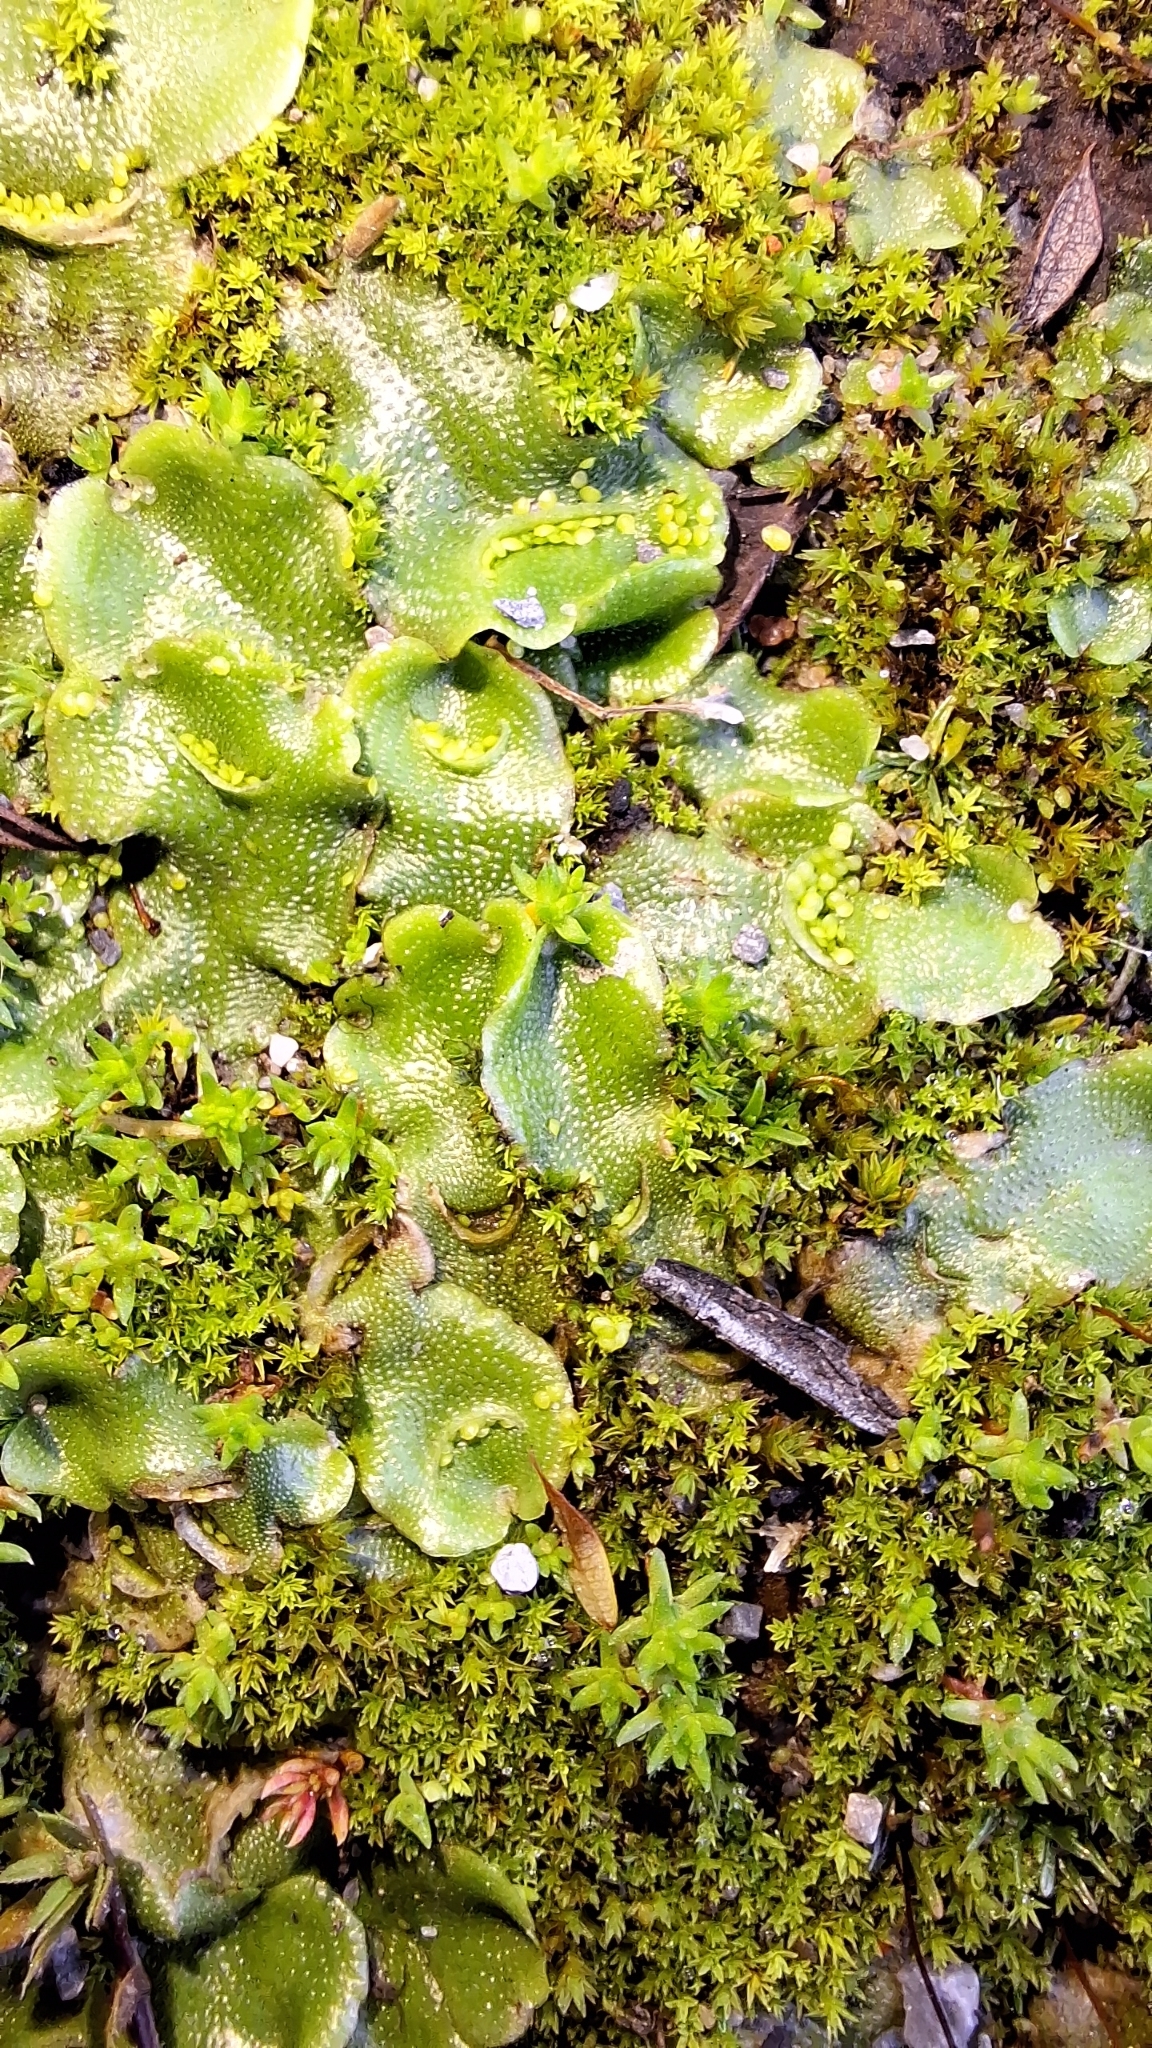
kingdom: Plantae
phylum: Marchantiophyta
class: Marchantiopsida
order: Lunulariales
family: Lunulariaceae
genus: Lunularia
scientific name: Lunularia cruciata
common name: Crescent-cup liverwort
